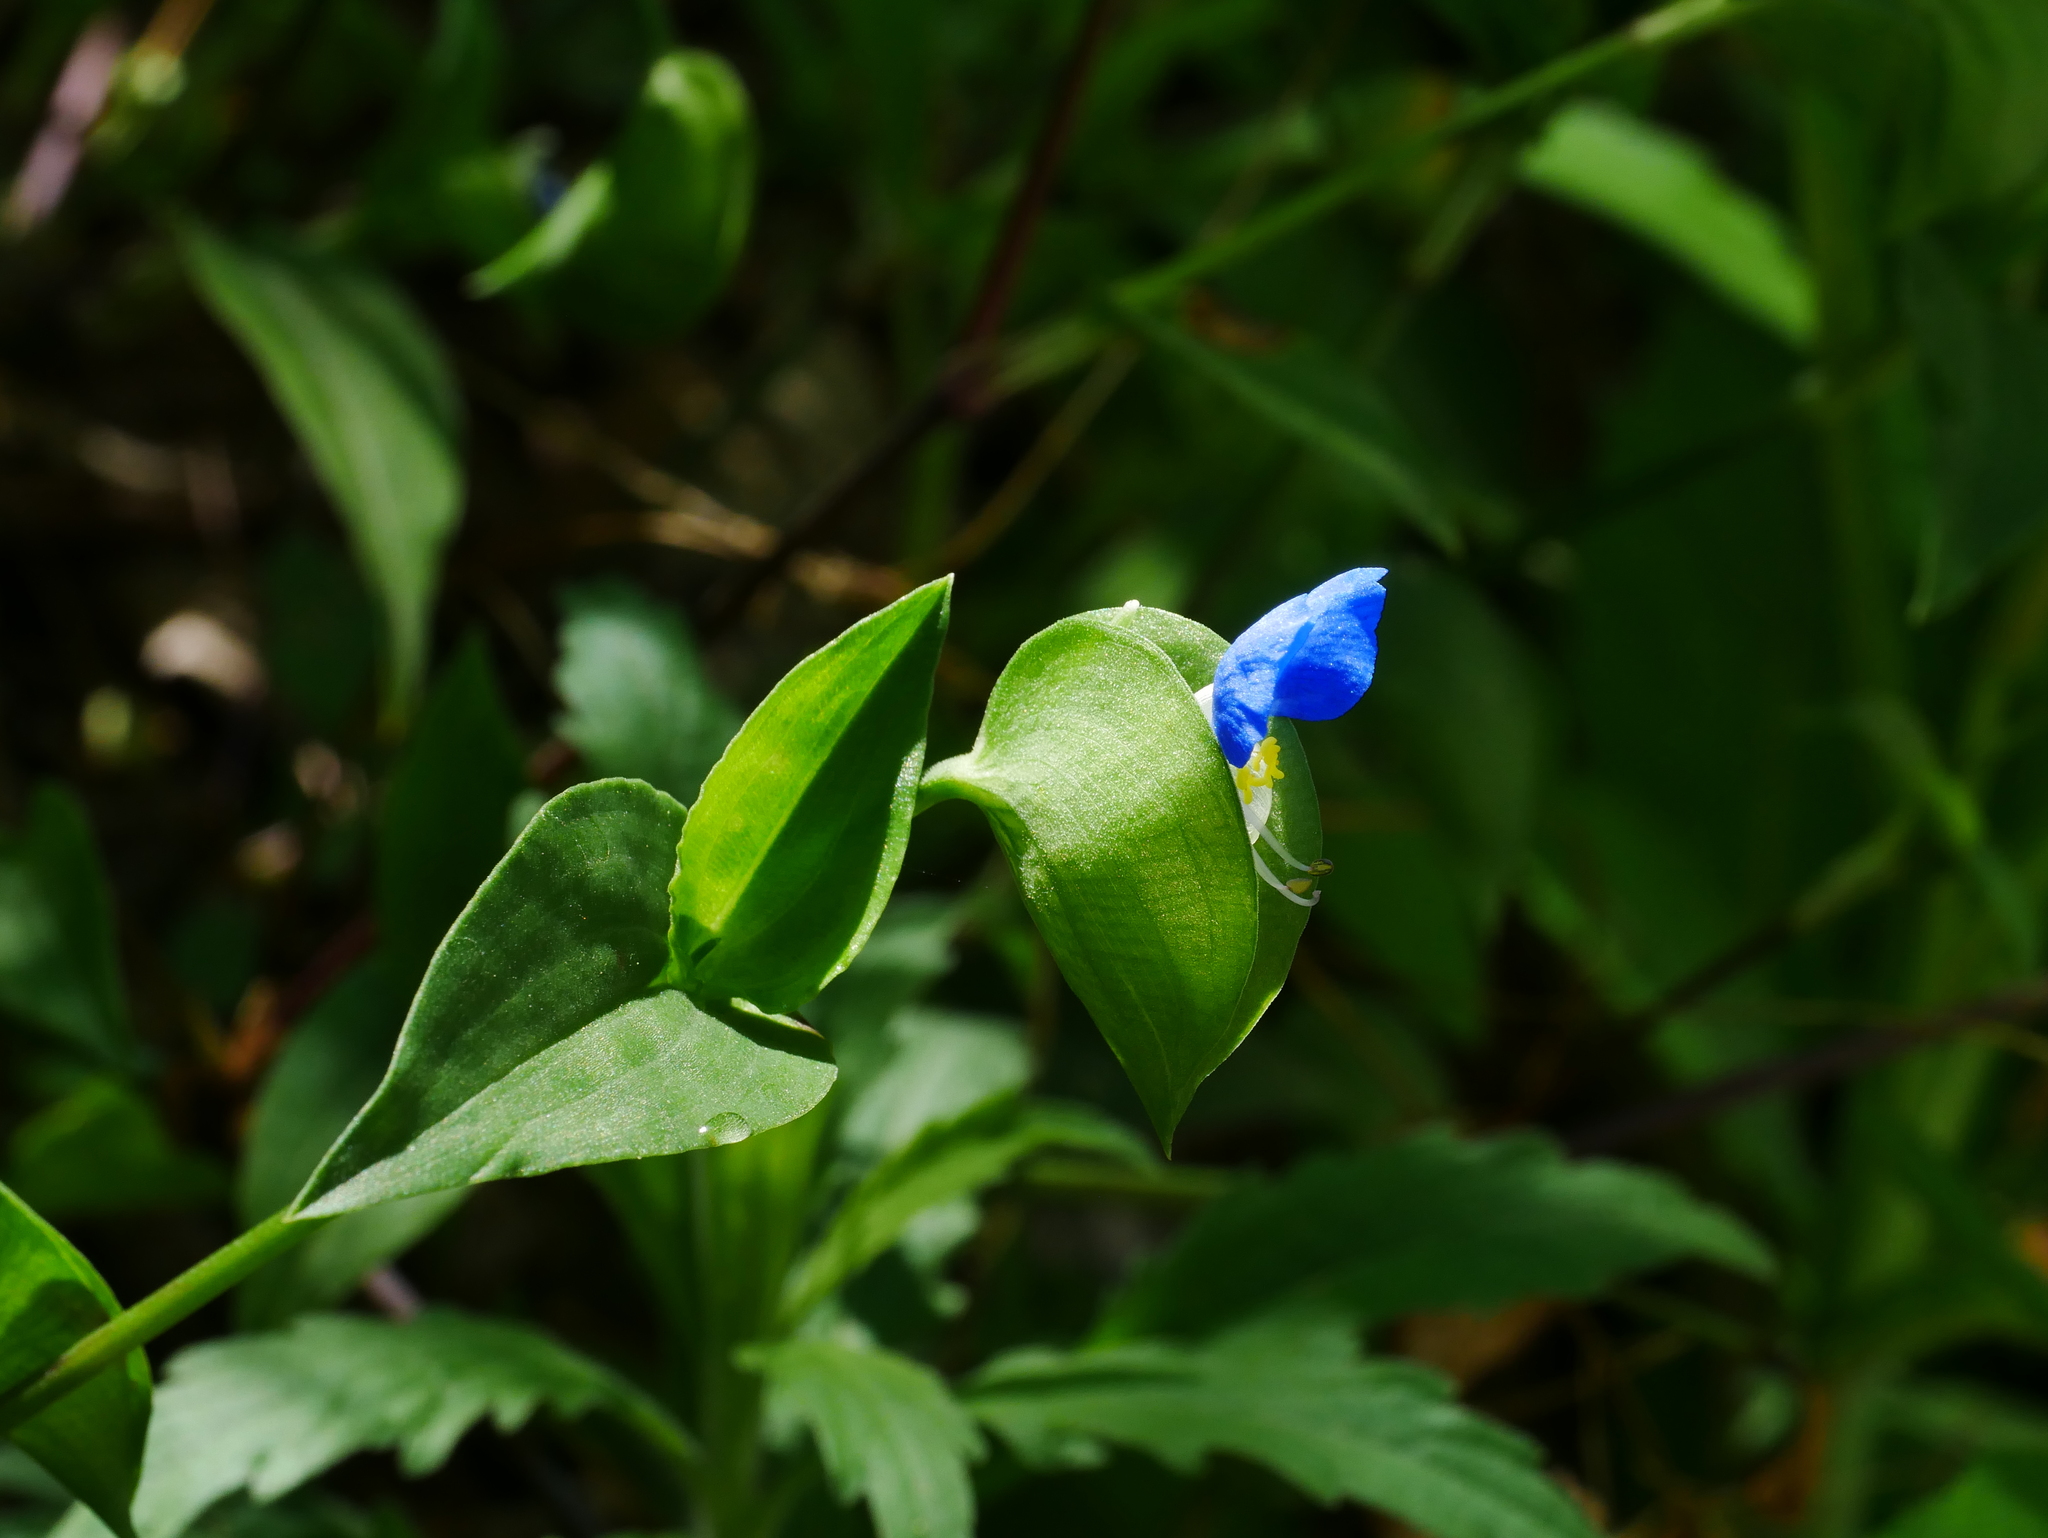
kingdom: Plantae
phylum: Tracheophyta
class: Liliopsida
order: Commelinales
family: Commelinaceae
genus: Commelina
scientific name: Commelina communis
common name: Asiatic dayflower
